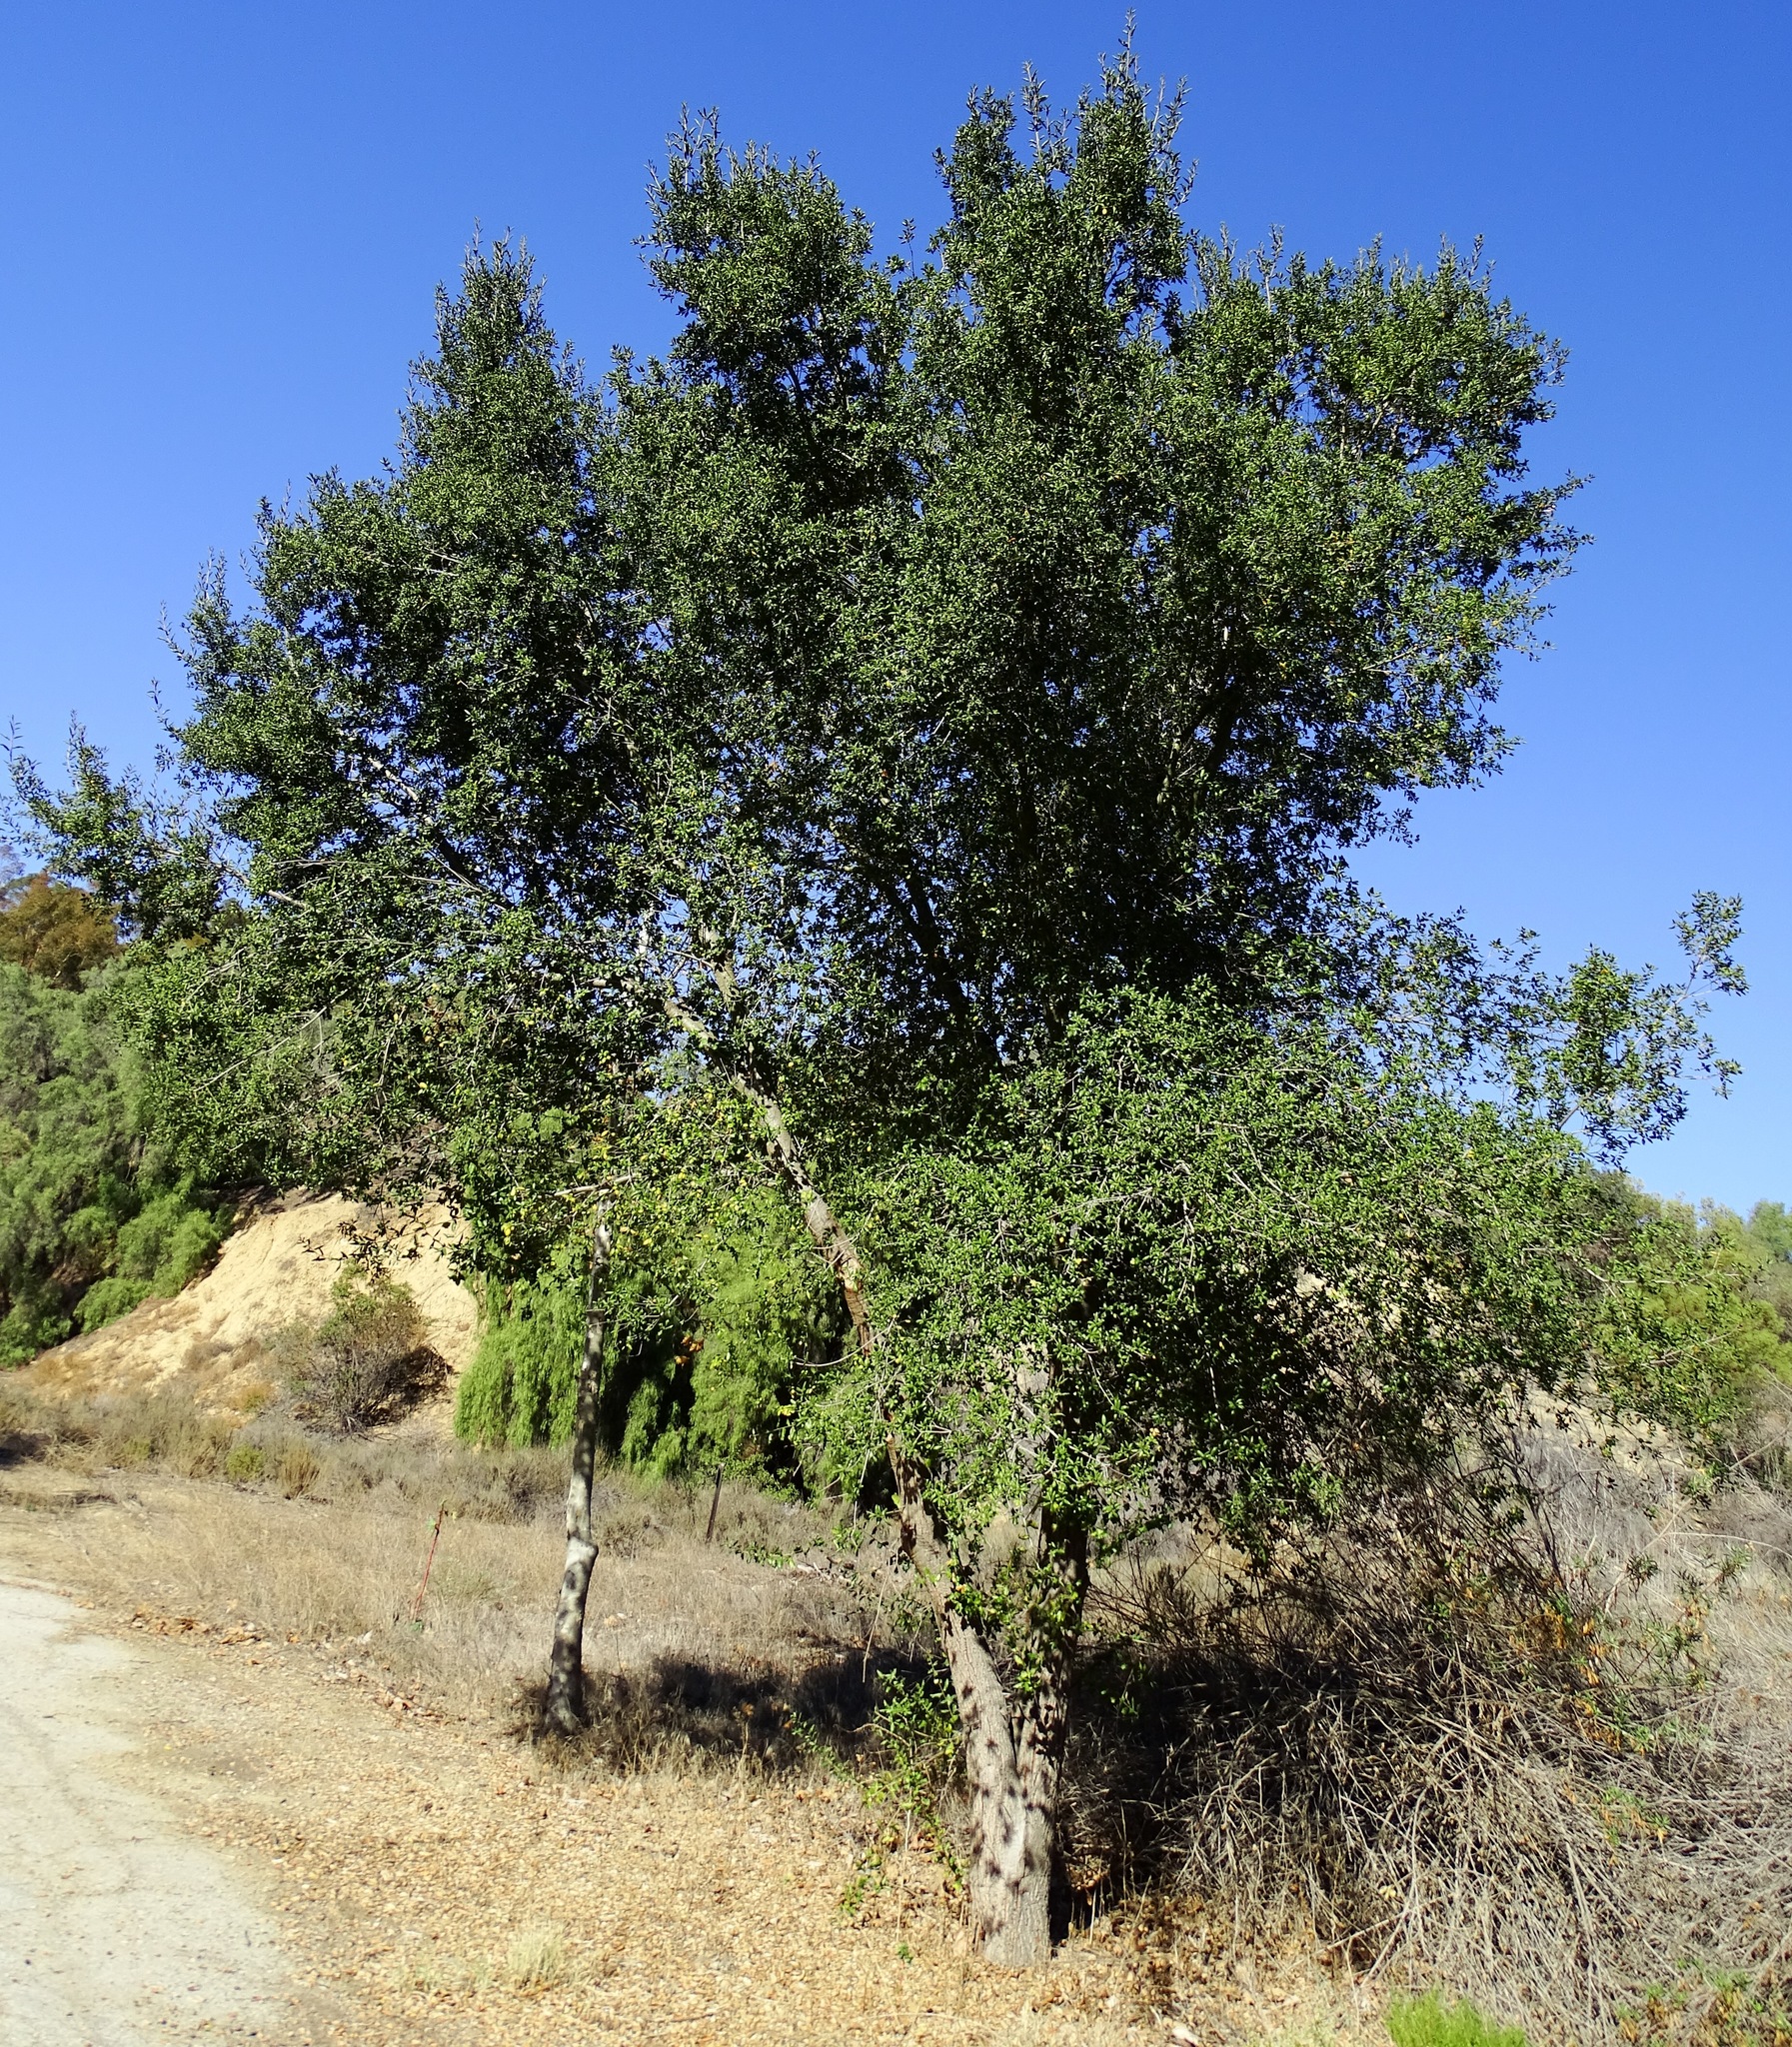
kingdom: Plantae
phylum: Tracheophyta
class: Magnoliopsida
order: Fagales
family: Fagaceae
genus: Quercus
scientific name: Quercus agrifolia
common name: California live oak
